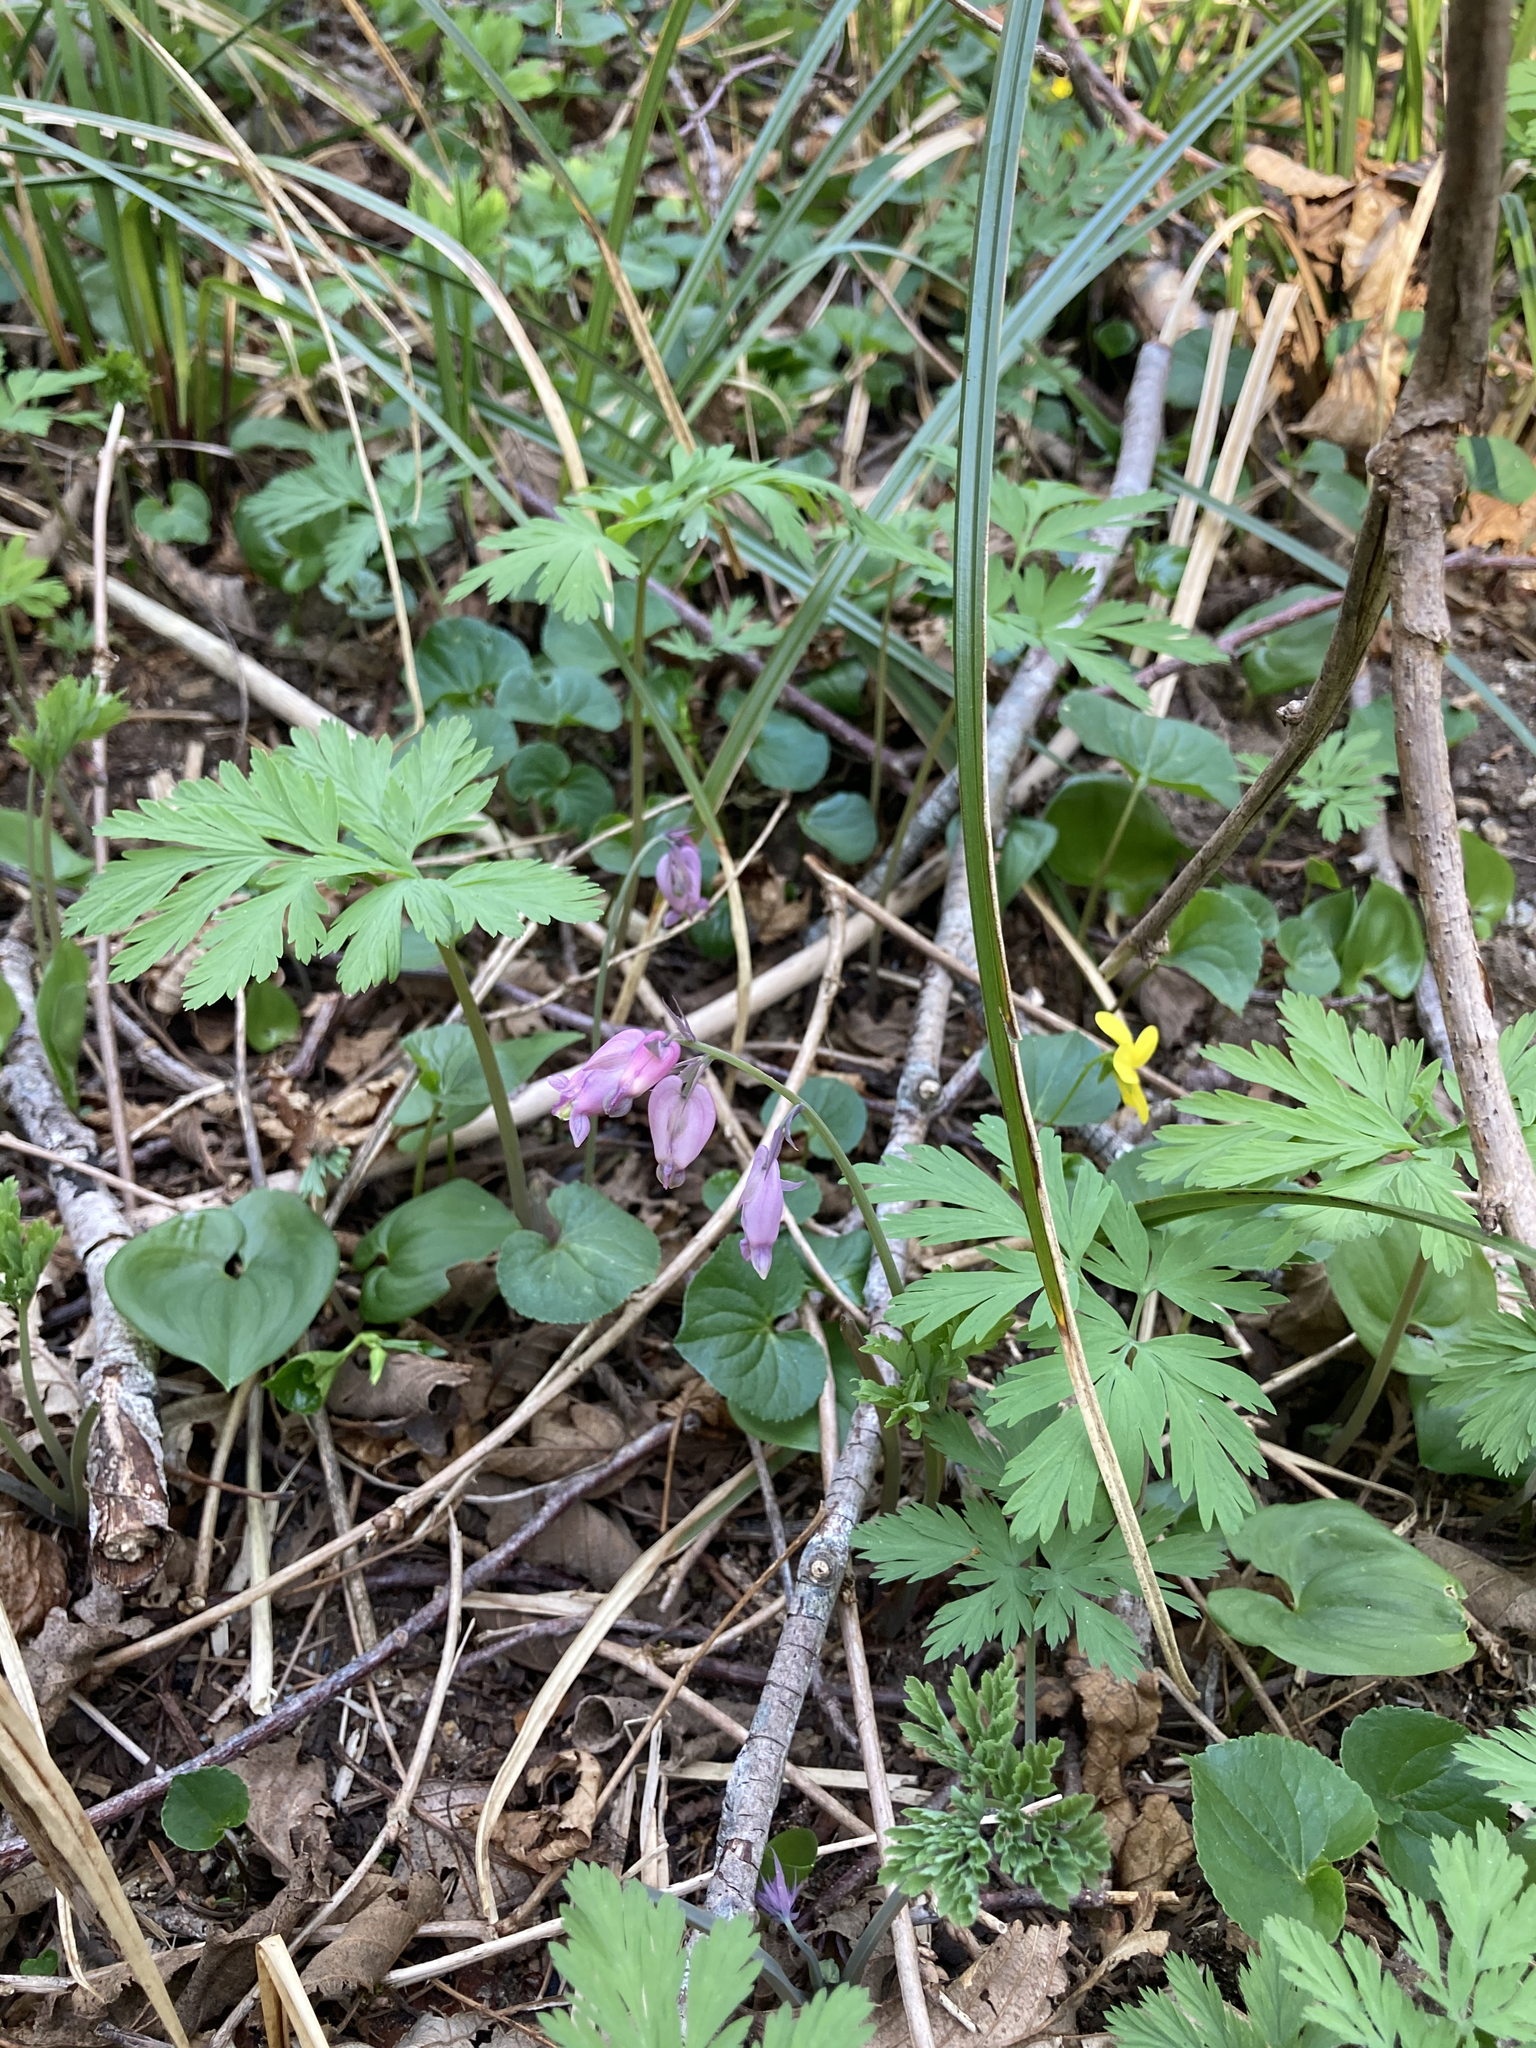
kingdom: Plantae
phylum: Tracheophyta
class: Magnoliopsida
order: Ranunculales
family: Papaveraceae
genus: Dicentra
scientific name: Dicentra formosa
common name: Bleeding-heart
